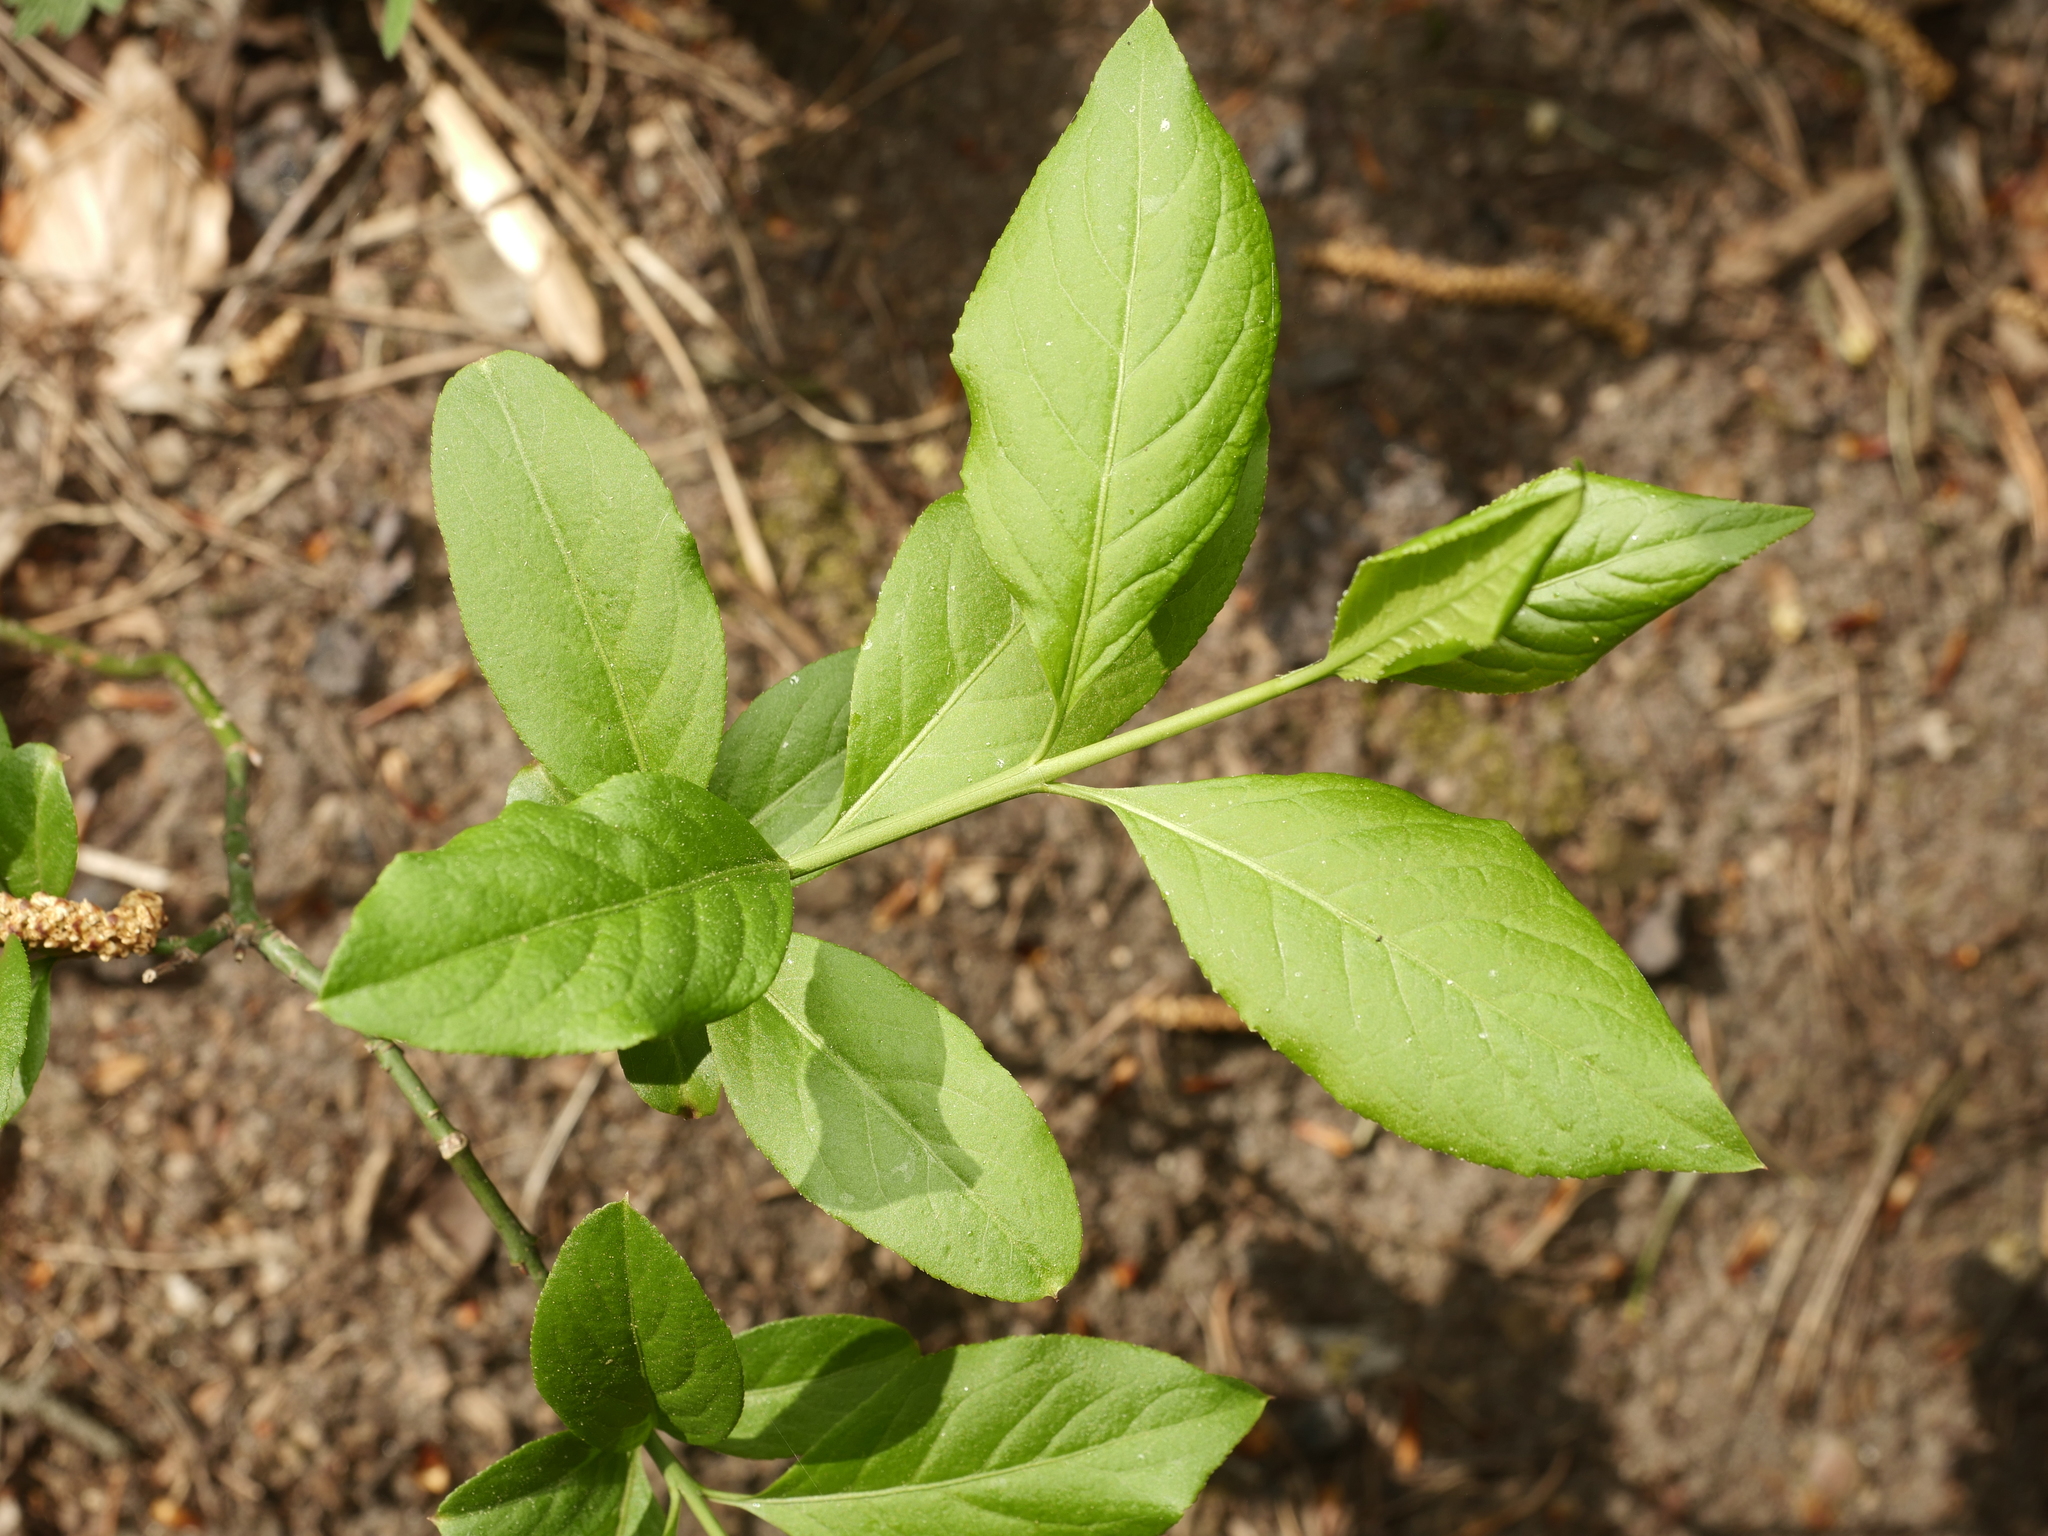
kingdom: Plantae
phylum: Tracheophyta
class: Magnoliopsida
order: Celastrales
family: Celastraceae
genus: Euonymus
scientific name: Euonymus europaeus
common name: Spindle
